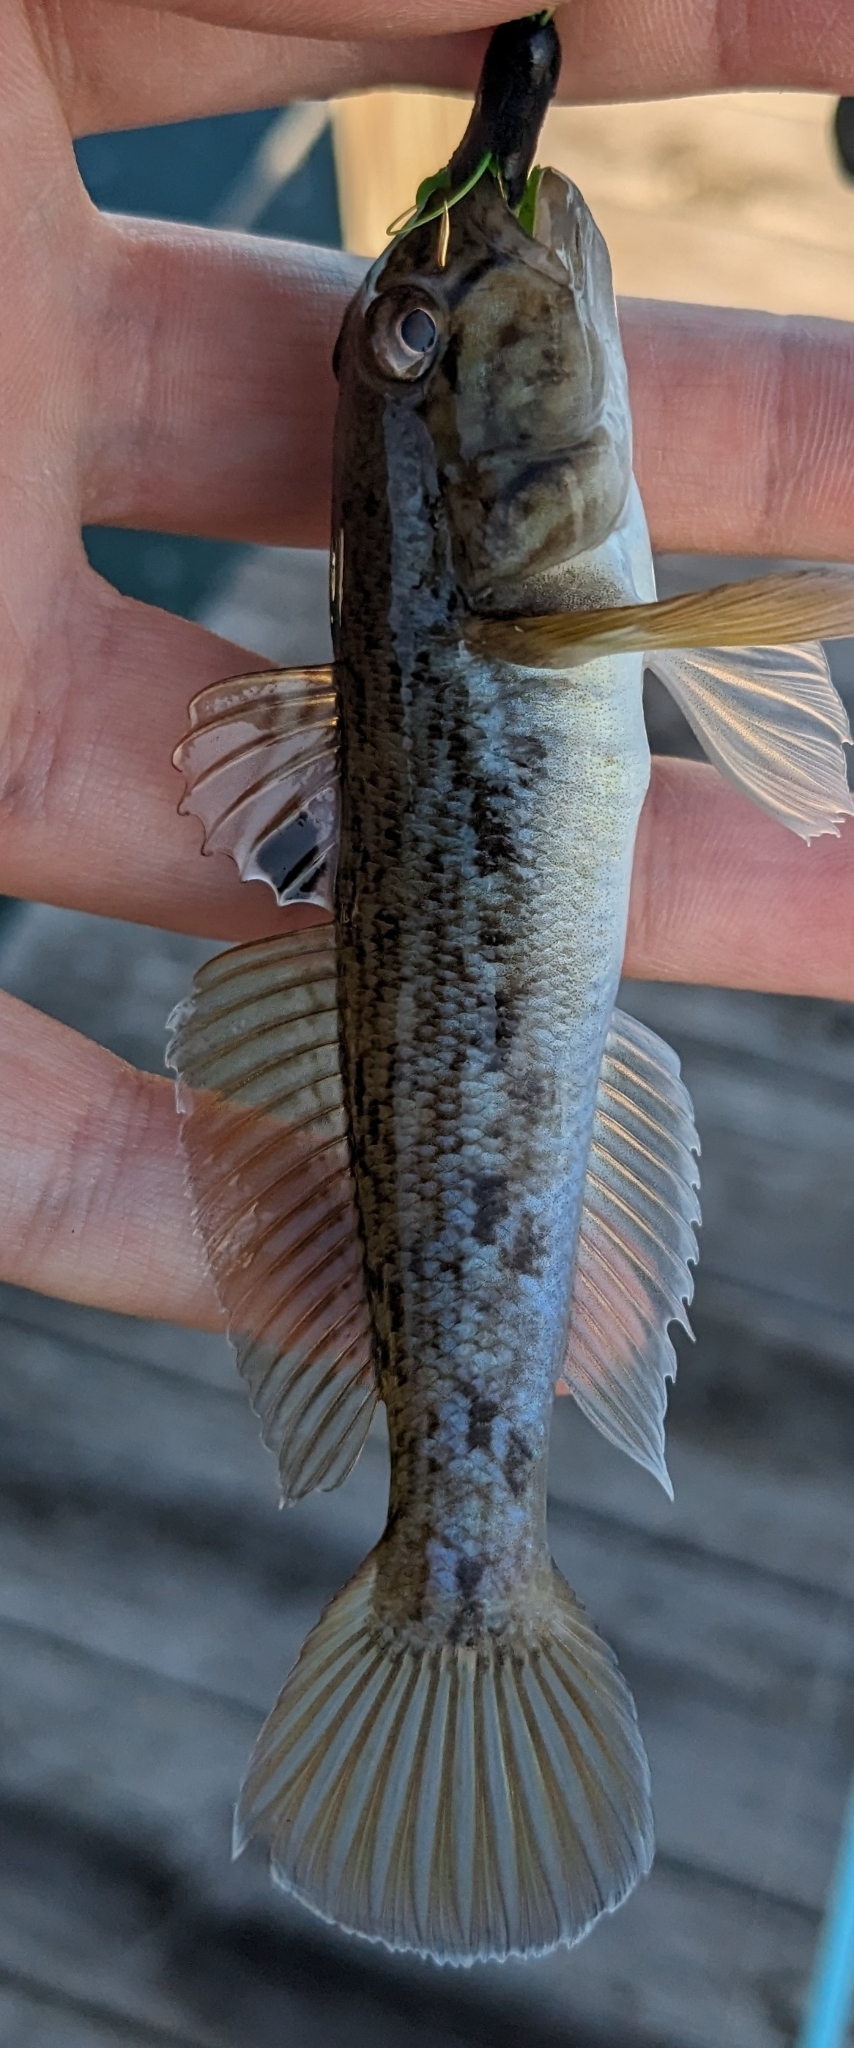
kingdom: Animalia
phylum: Chordata
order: Perciformes
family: Gobiidae
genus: Neogobius
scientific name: Neogobius melanostomus
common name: Round goby
